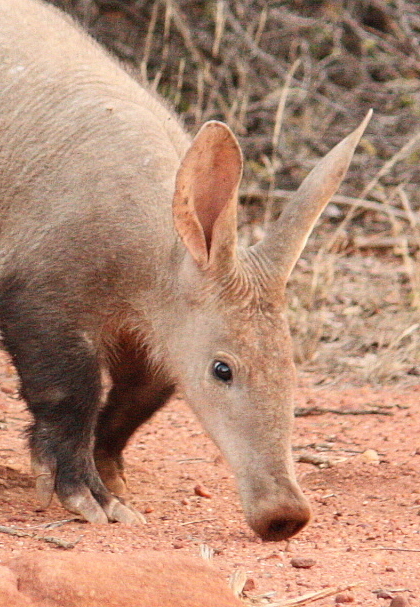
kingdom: Animalia
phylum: Chordata
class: Mammalia
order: Tubulidentata
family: Orycteropodidae
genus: Orycteropus
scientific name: Orycteropus afer
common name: Aardvark
